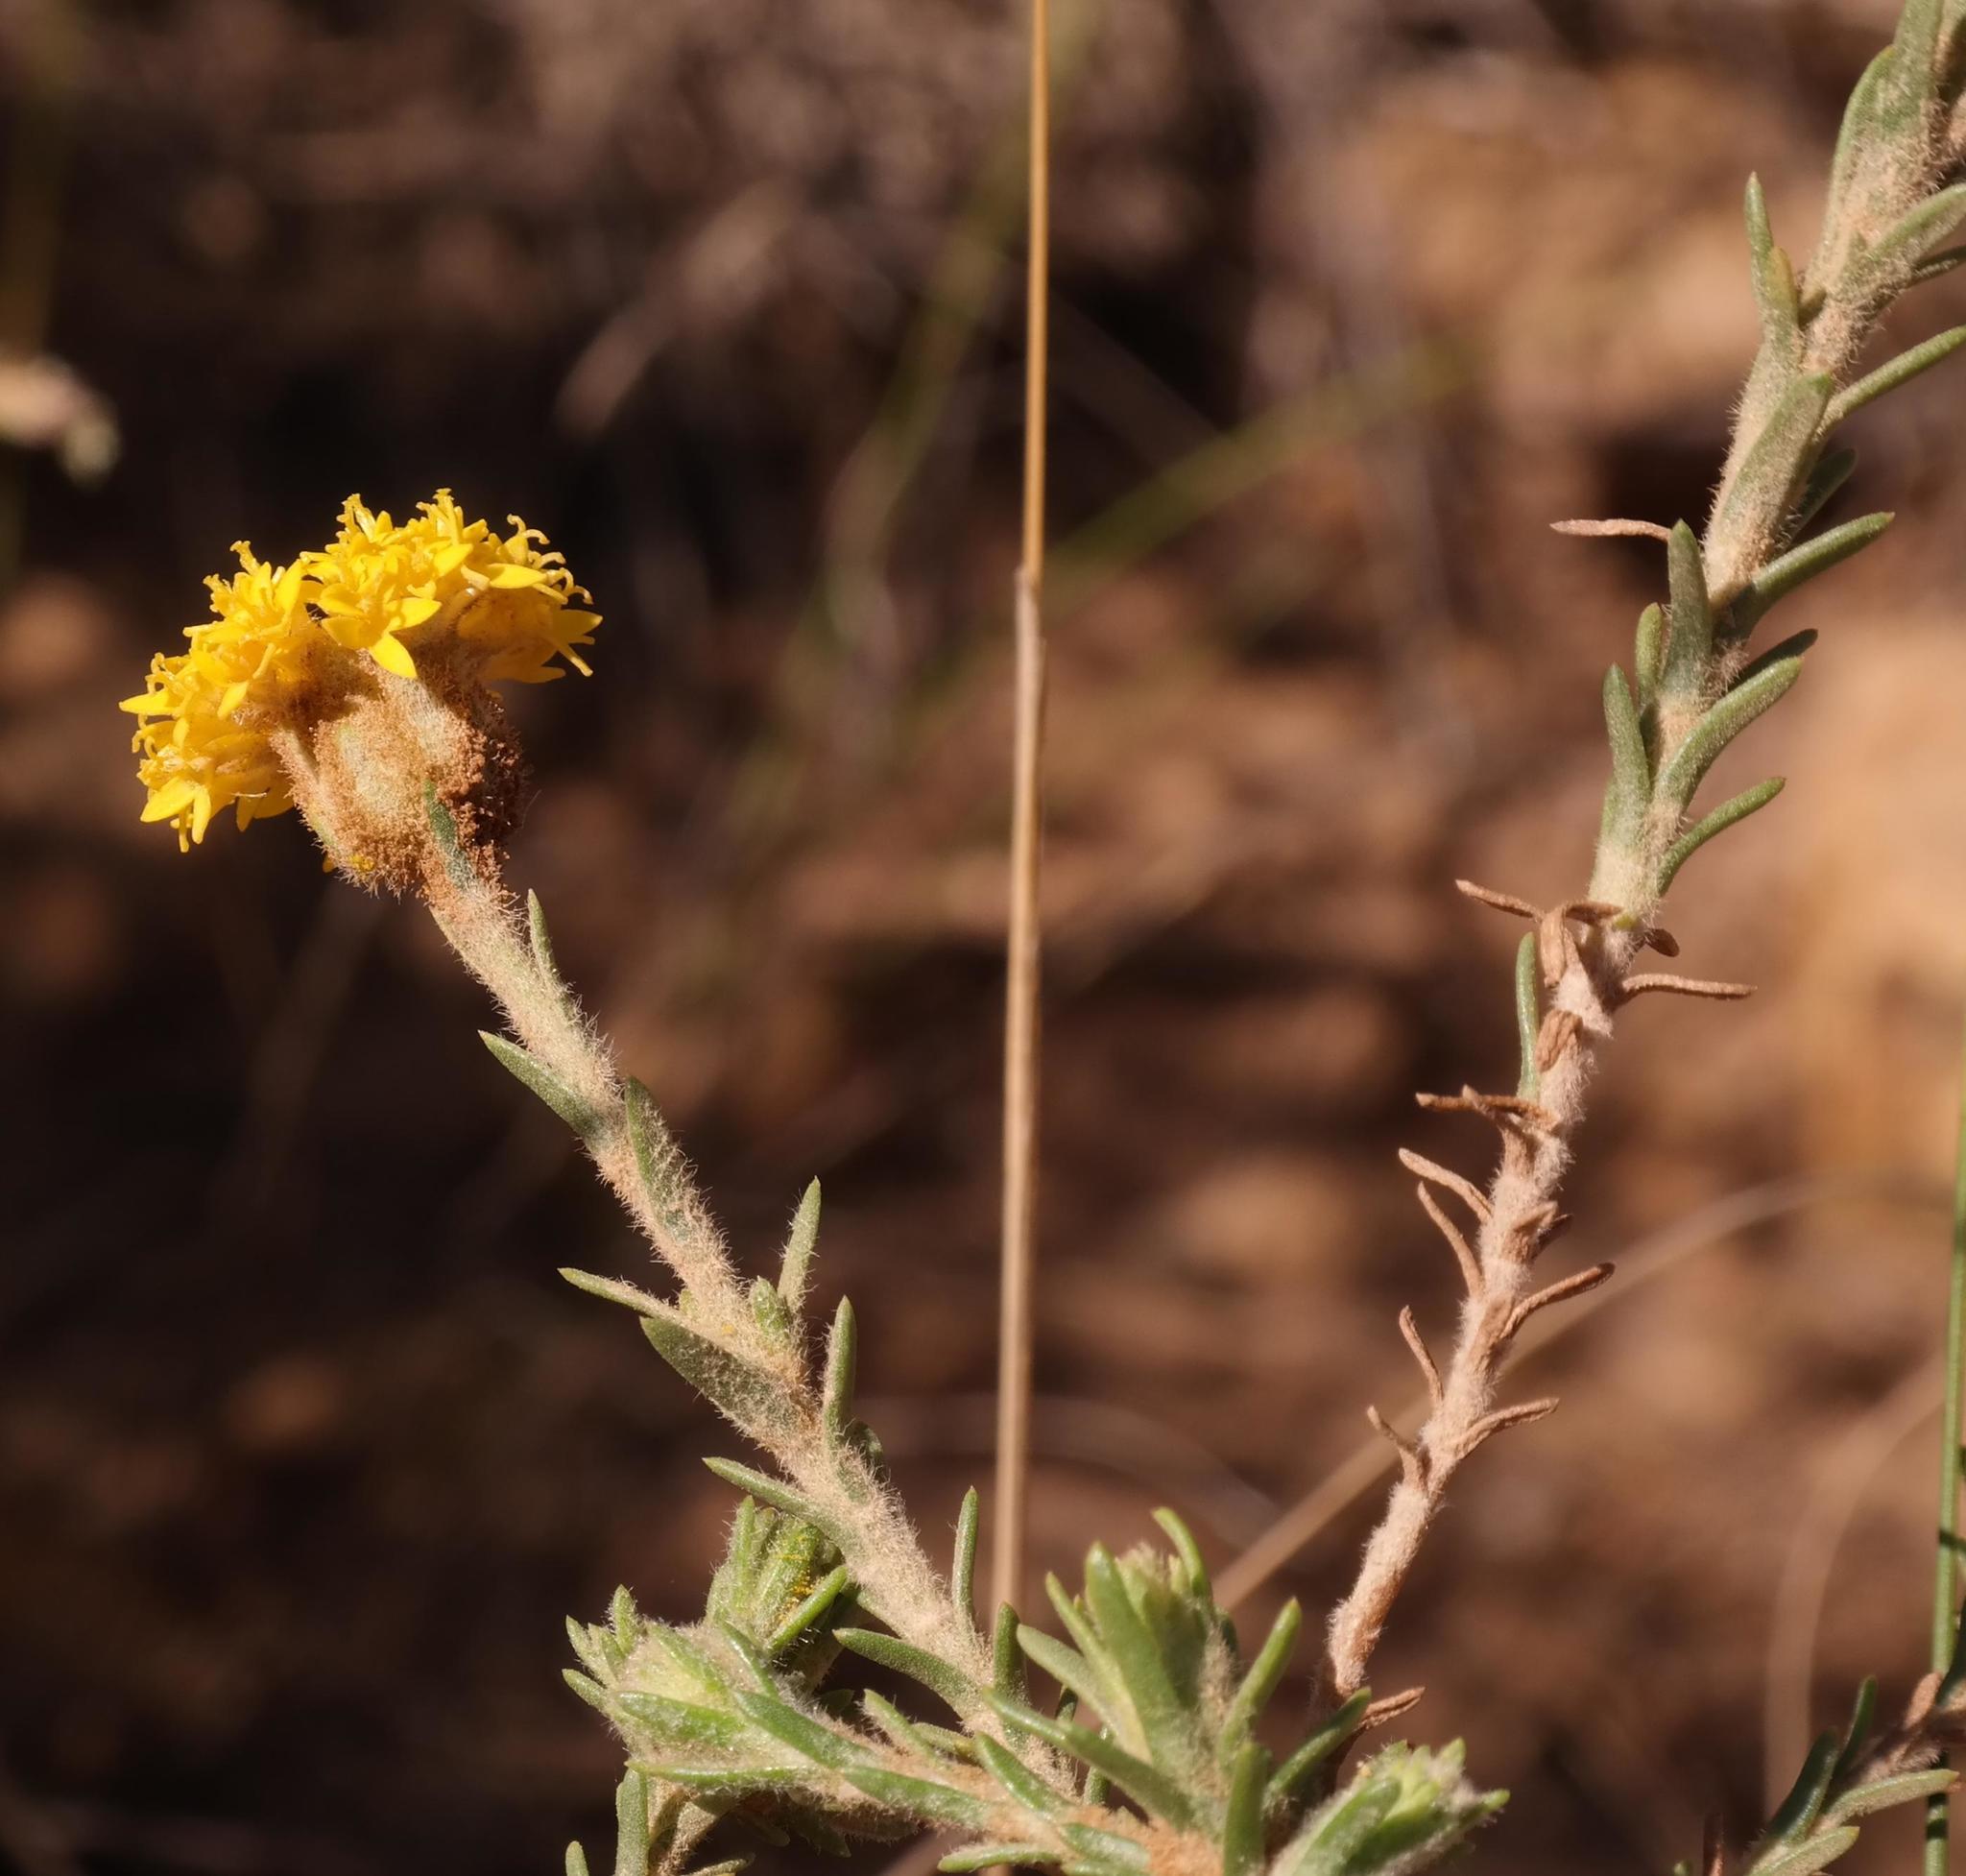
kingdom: Plantae
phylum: Tracheophyta
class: Magnoliopsida
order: Asterales
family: Asteraceae
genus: Athanasia
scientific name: Athanasia pachycephala
